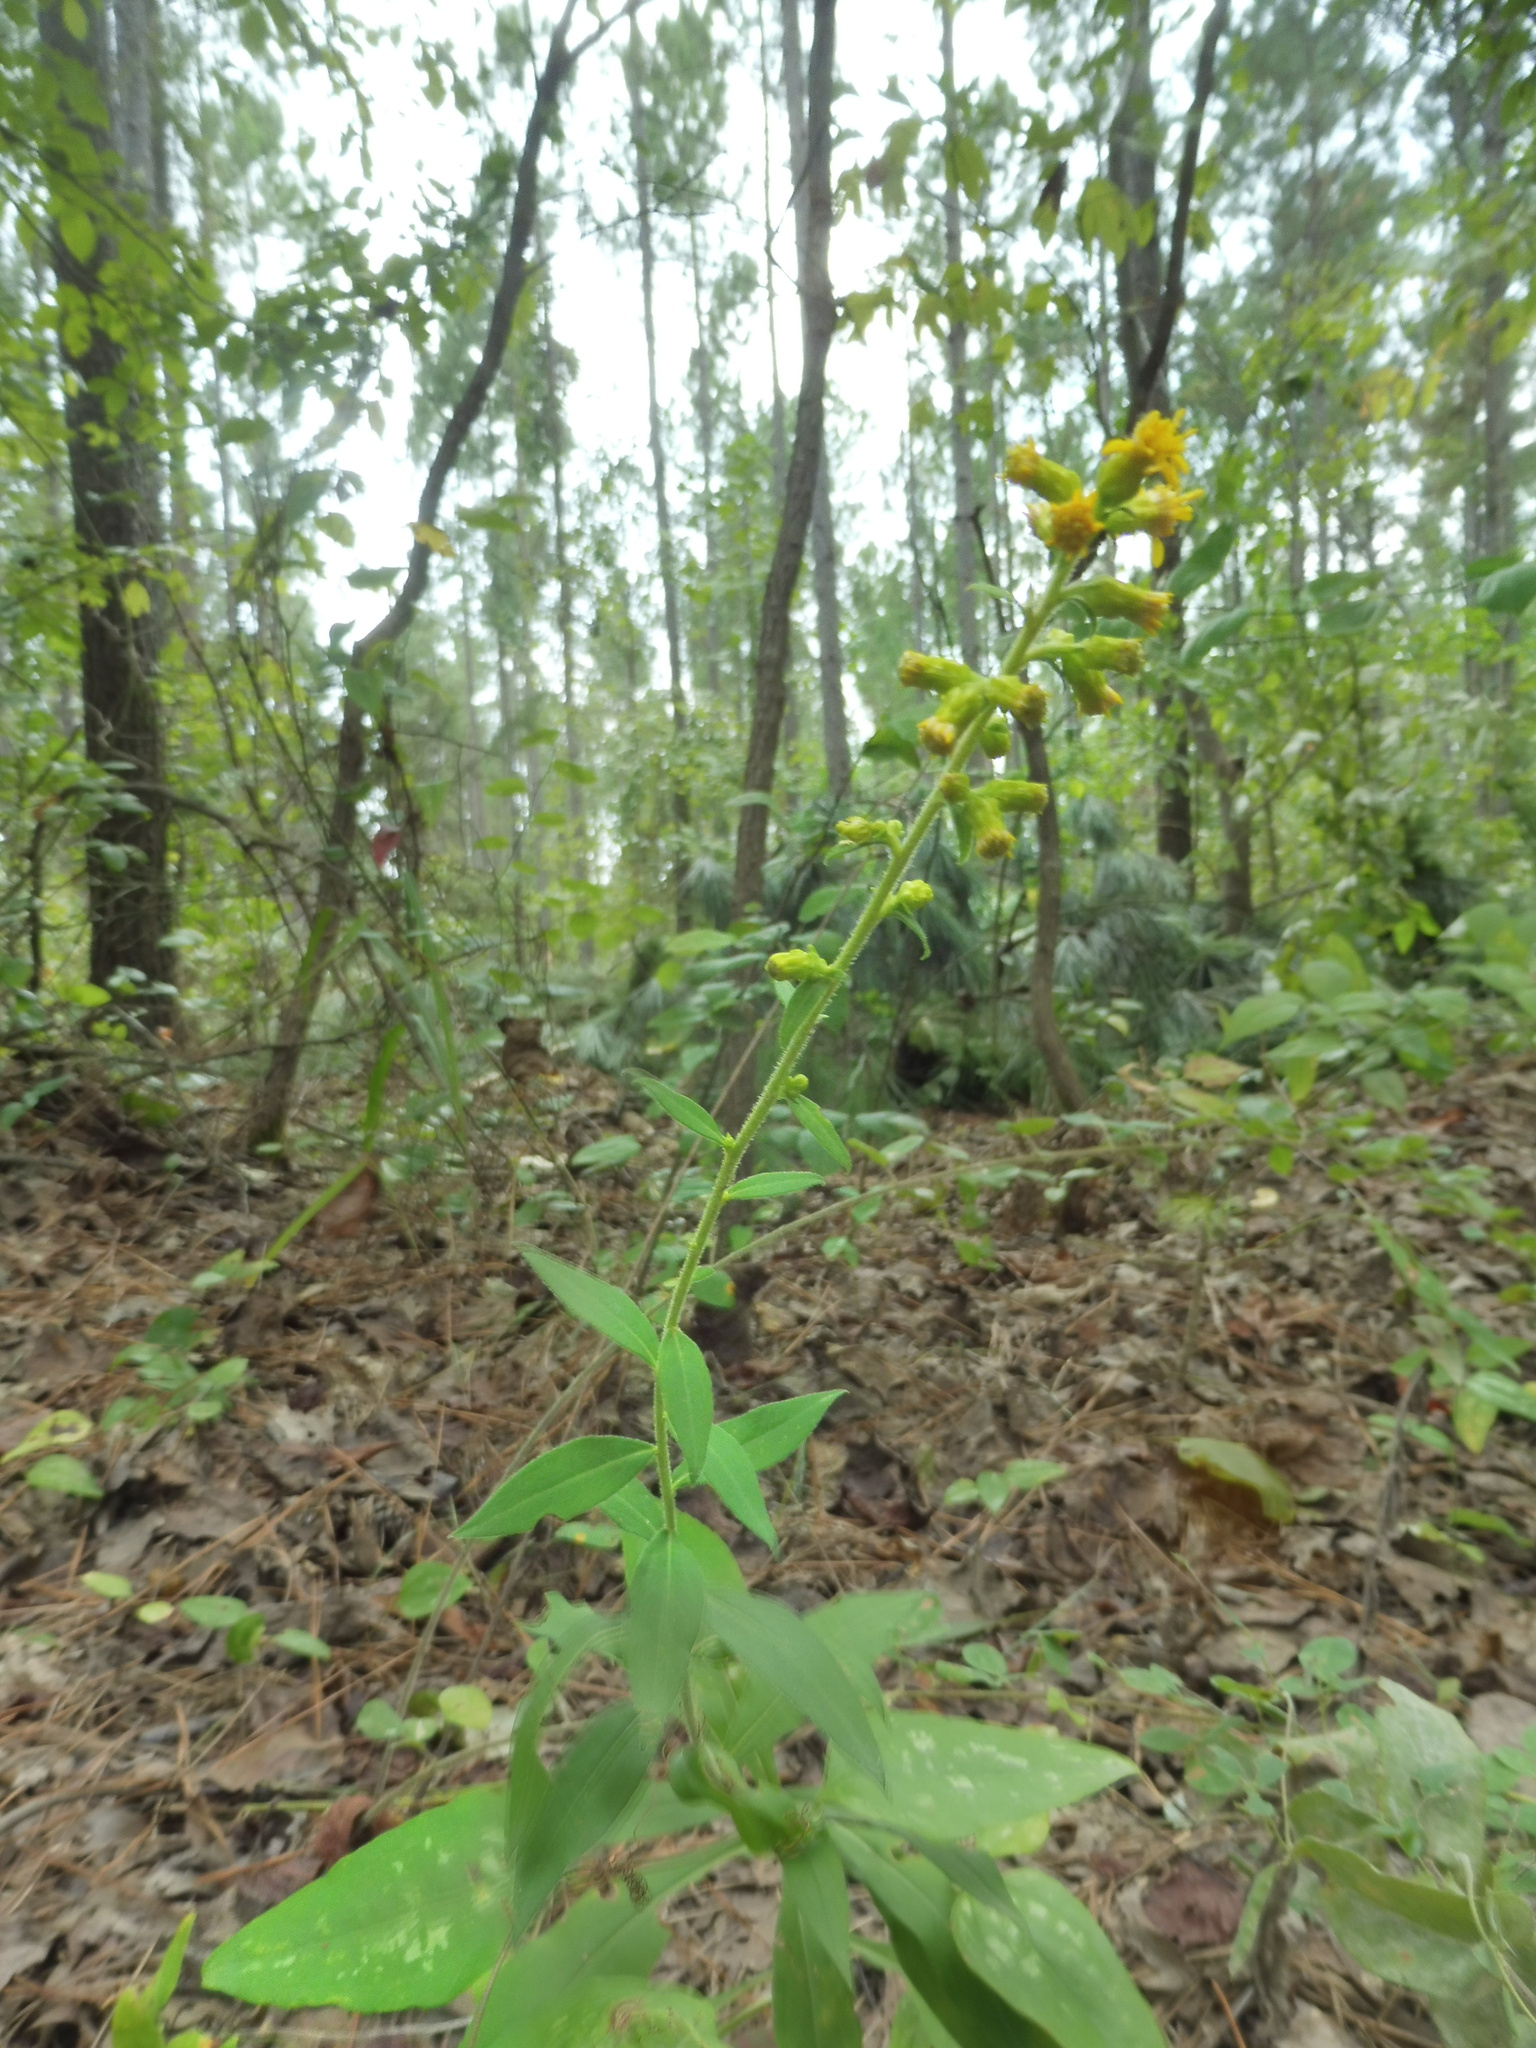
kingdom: Plantae
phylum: Tracheophyta
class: Magnoliopsida
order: Asterales
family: Asteraceae
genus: Solidago
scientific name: Solidago porteri
